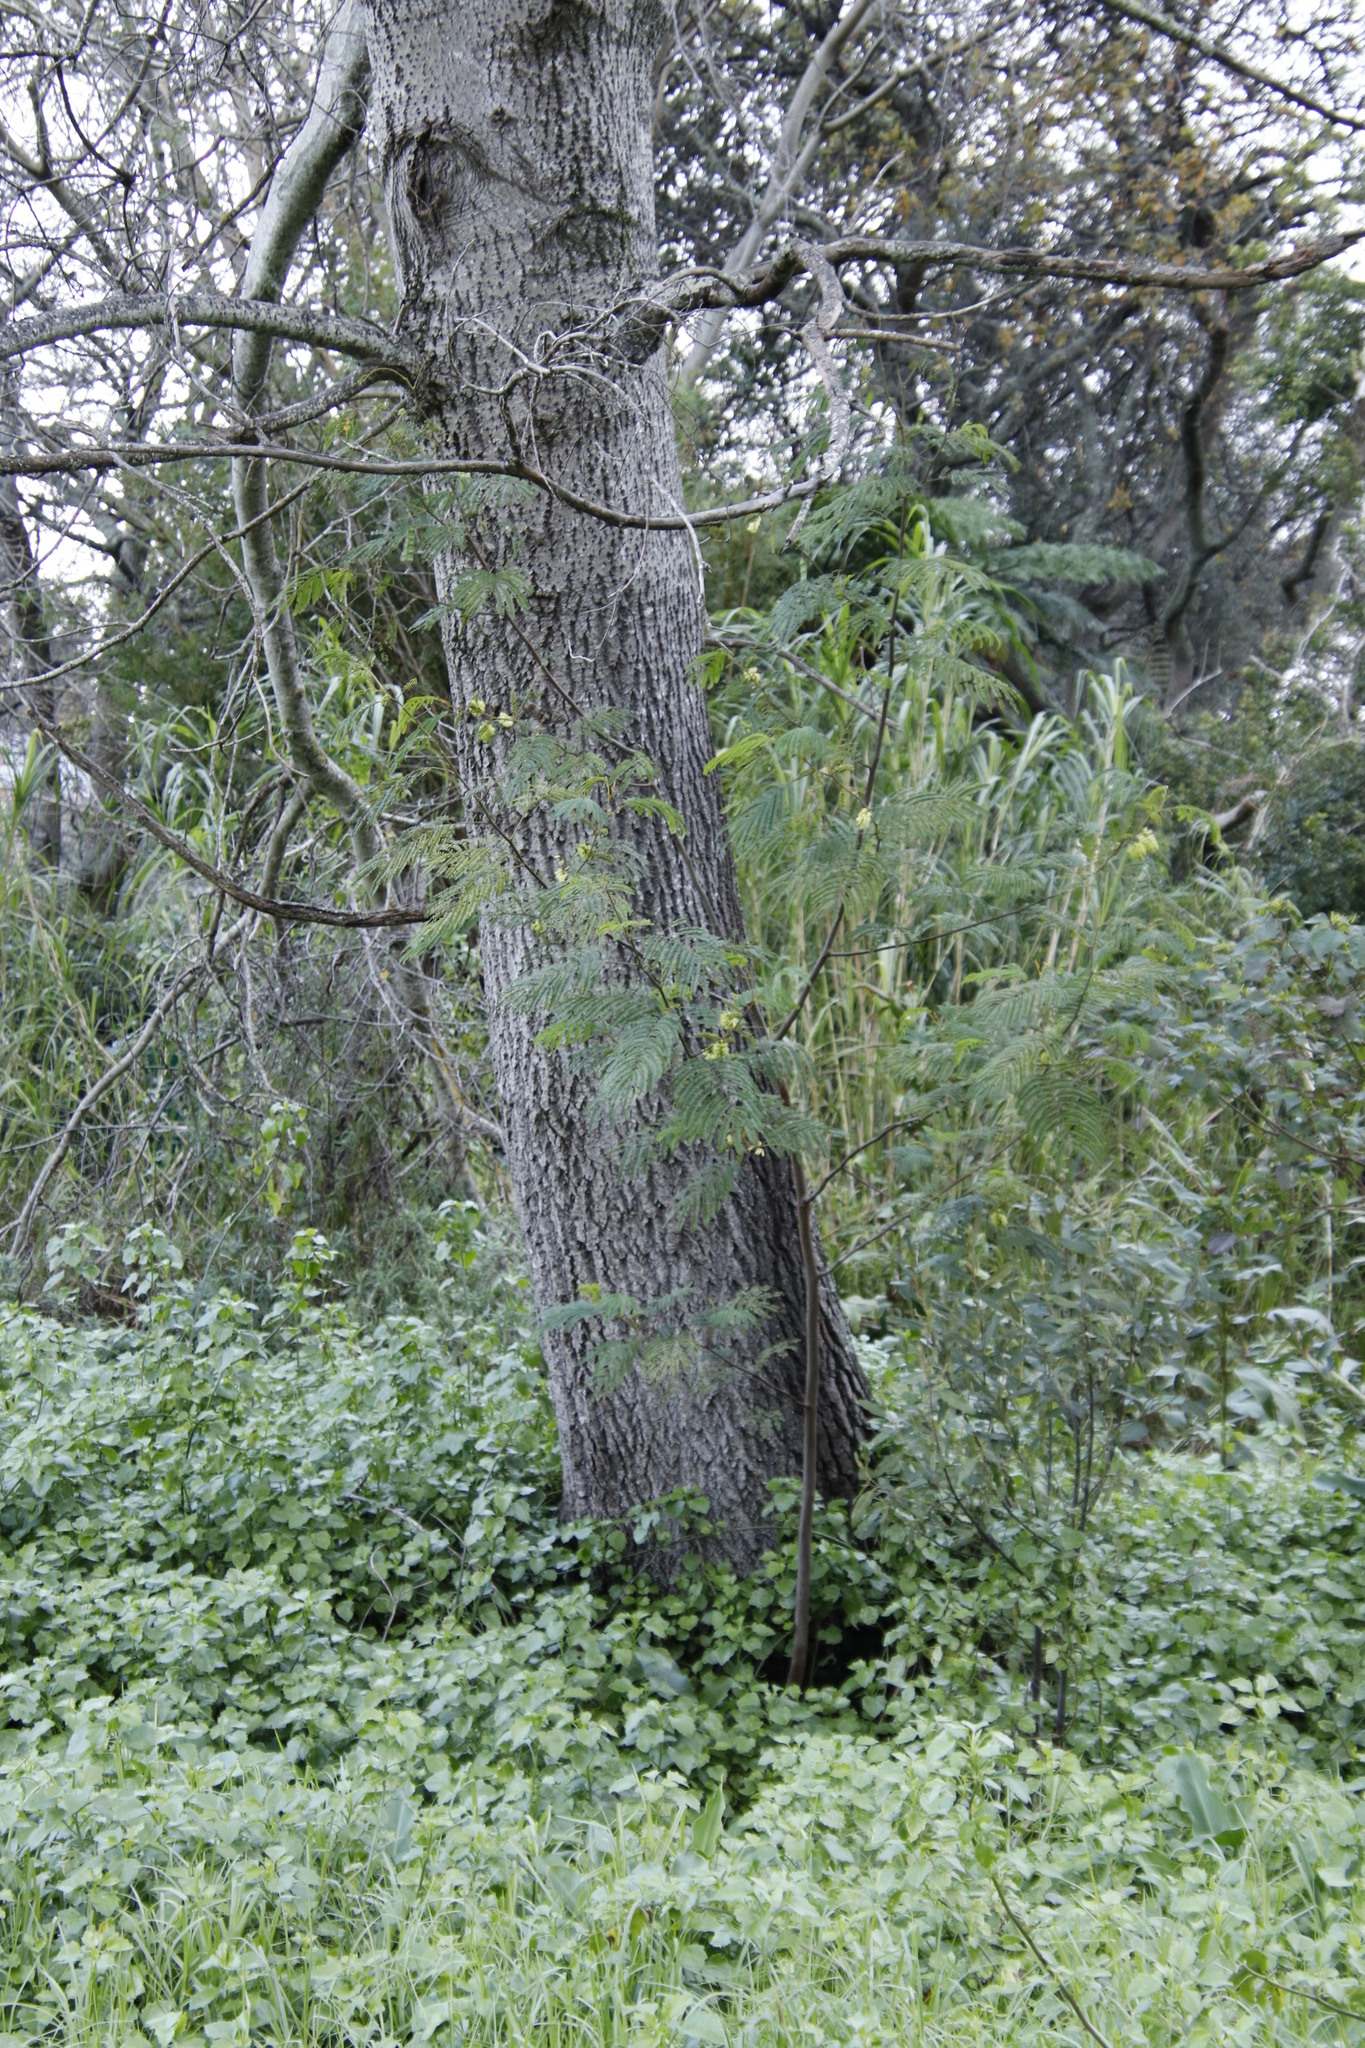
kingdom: Plantae
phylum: Tracheophyta
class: Magnoliopsida
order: Fabales
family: Fabaceae
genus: Paraserianthes
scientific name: Paraserianthes lophantha
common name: Plume albizia
